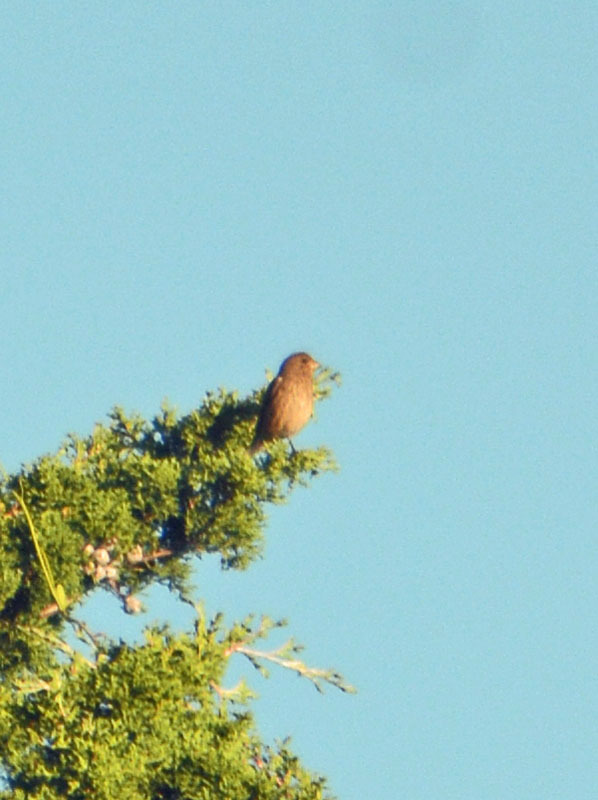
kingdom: Animalia
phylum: Chordata
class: Aves
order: Passeriformes
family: Fringillidae
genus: Haemorhous
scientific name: Haemorhous mexicanus
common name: House finch
